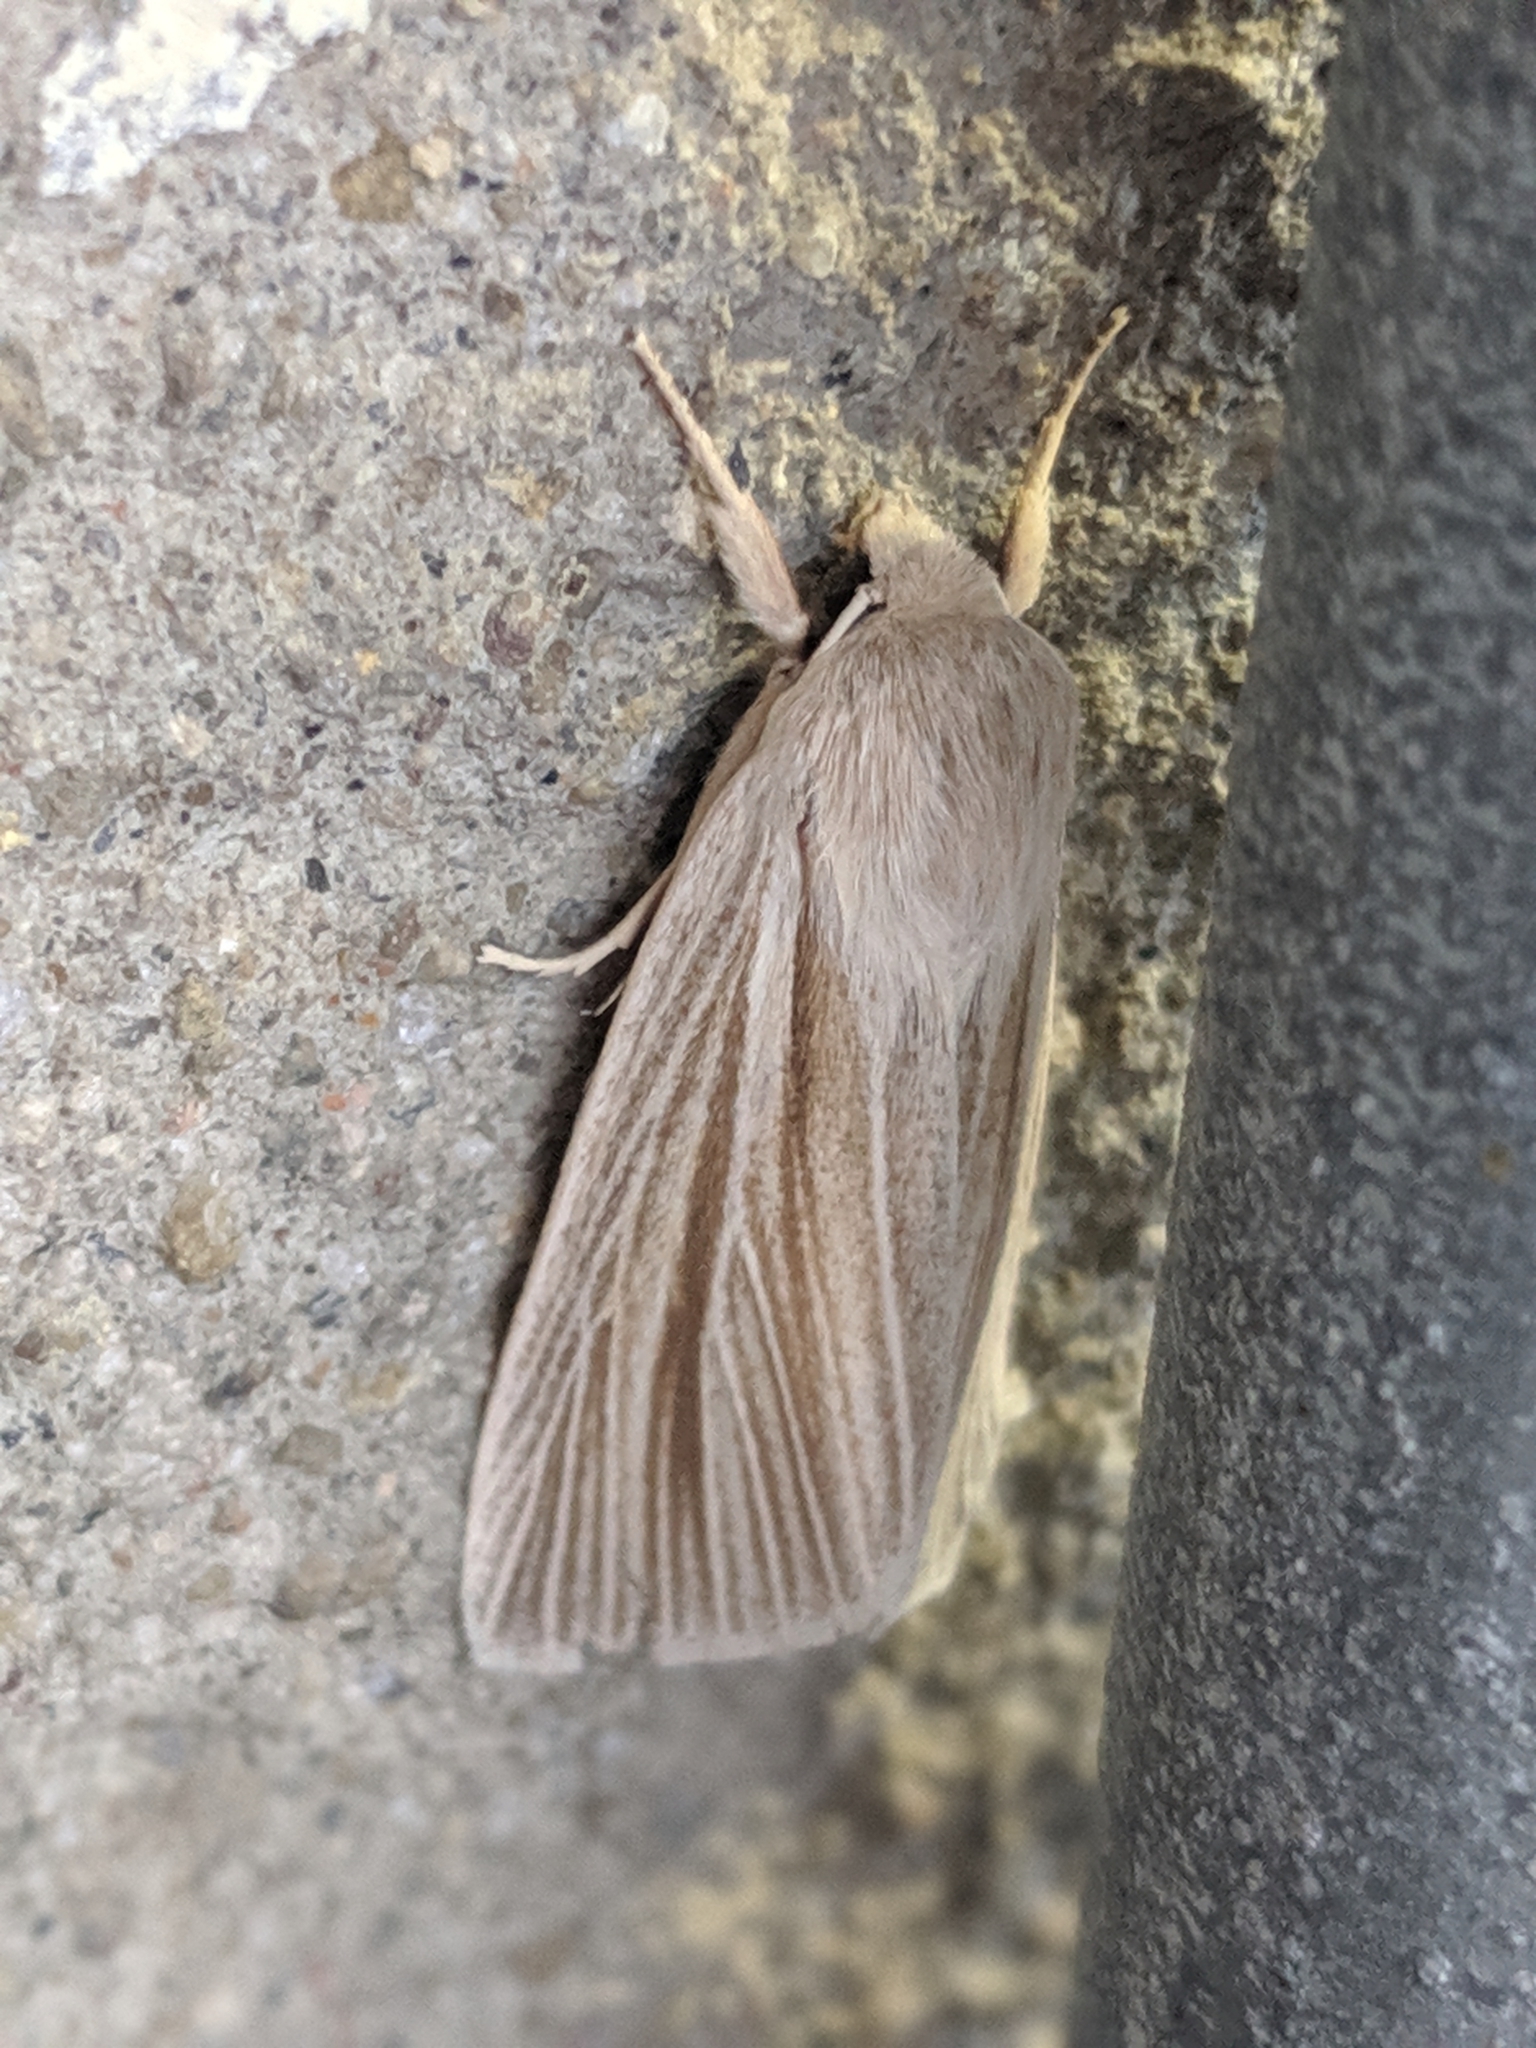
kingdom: Animalia
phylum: Arthropoda
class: Insecta
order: Lepidoptera
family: Noctuidae
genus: Acronicta
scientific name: Acronicta insularis
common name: Henry's marsh moth
